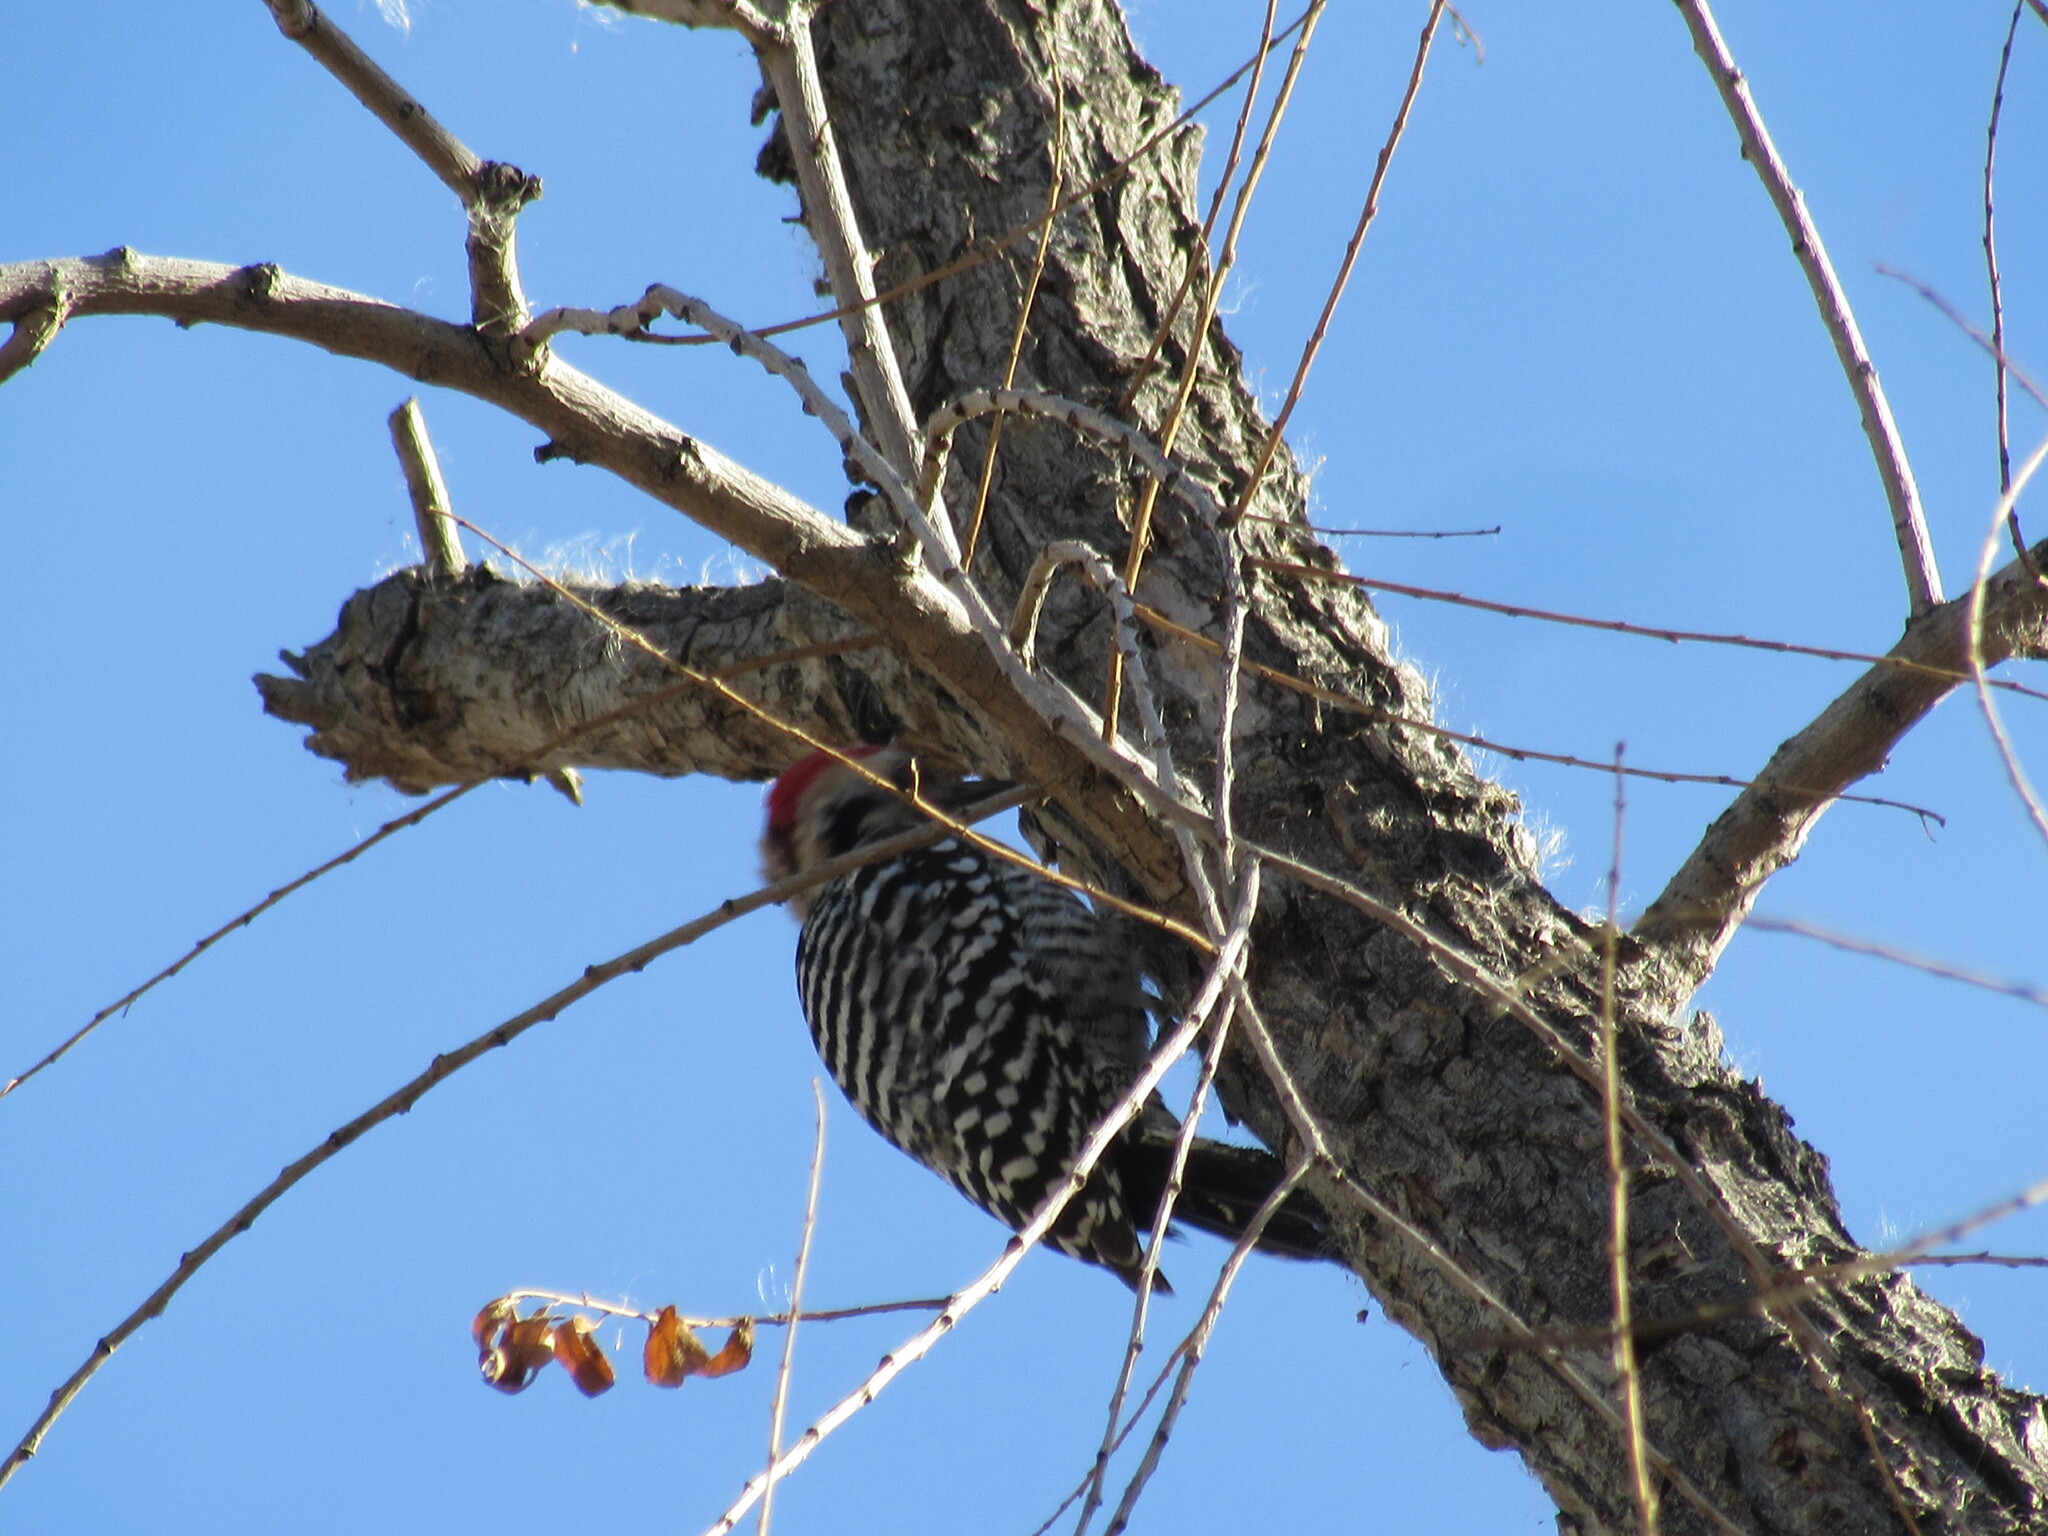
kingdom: Animalia
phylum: Chordata
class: Aves
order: Piciformes
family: Picidae
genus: Dryobates
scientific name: Dryobates scalaris
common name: Ladder-backed woodpecker
